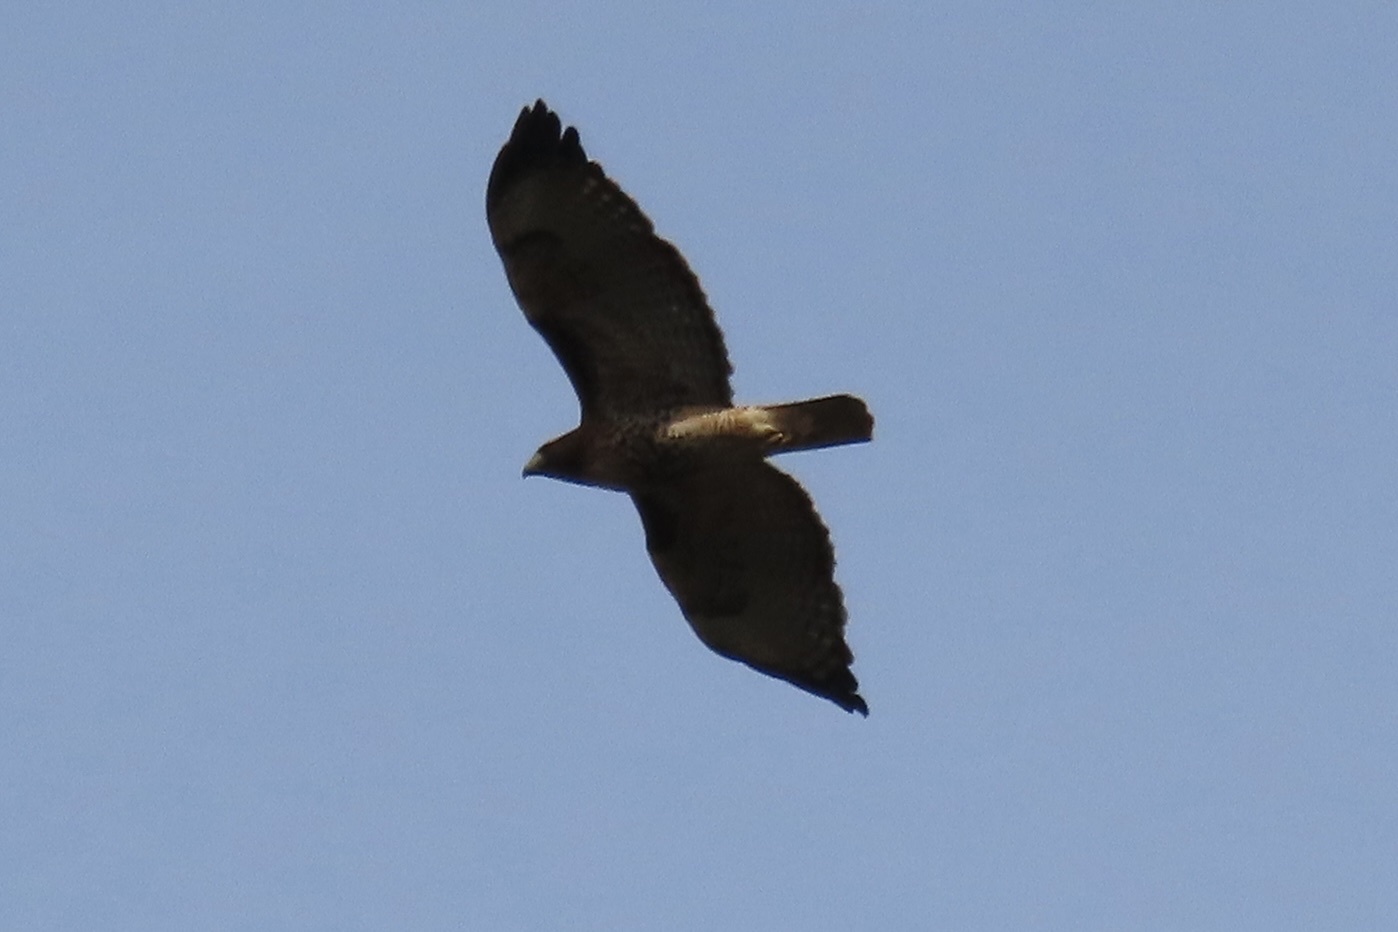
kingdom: Animalia
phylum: Chordata
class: Aves
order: Accipitriformes
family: Accipitridae
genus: Buteo
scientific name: Buteo jamaicensis
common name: Red-tailed hawk
